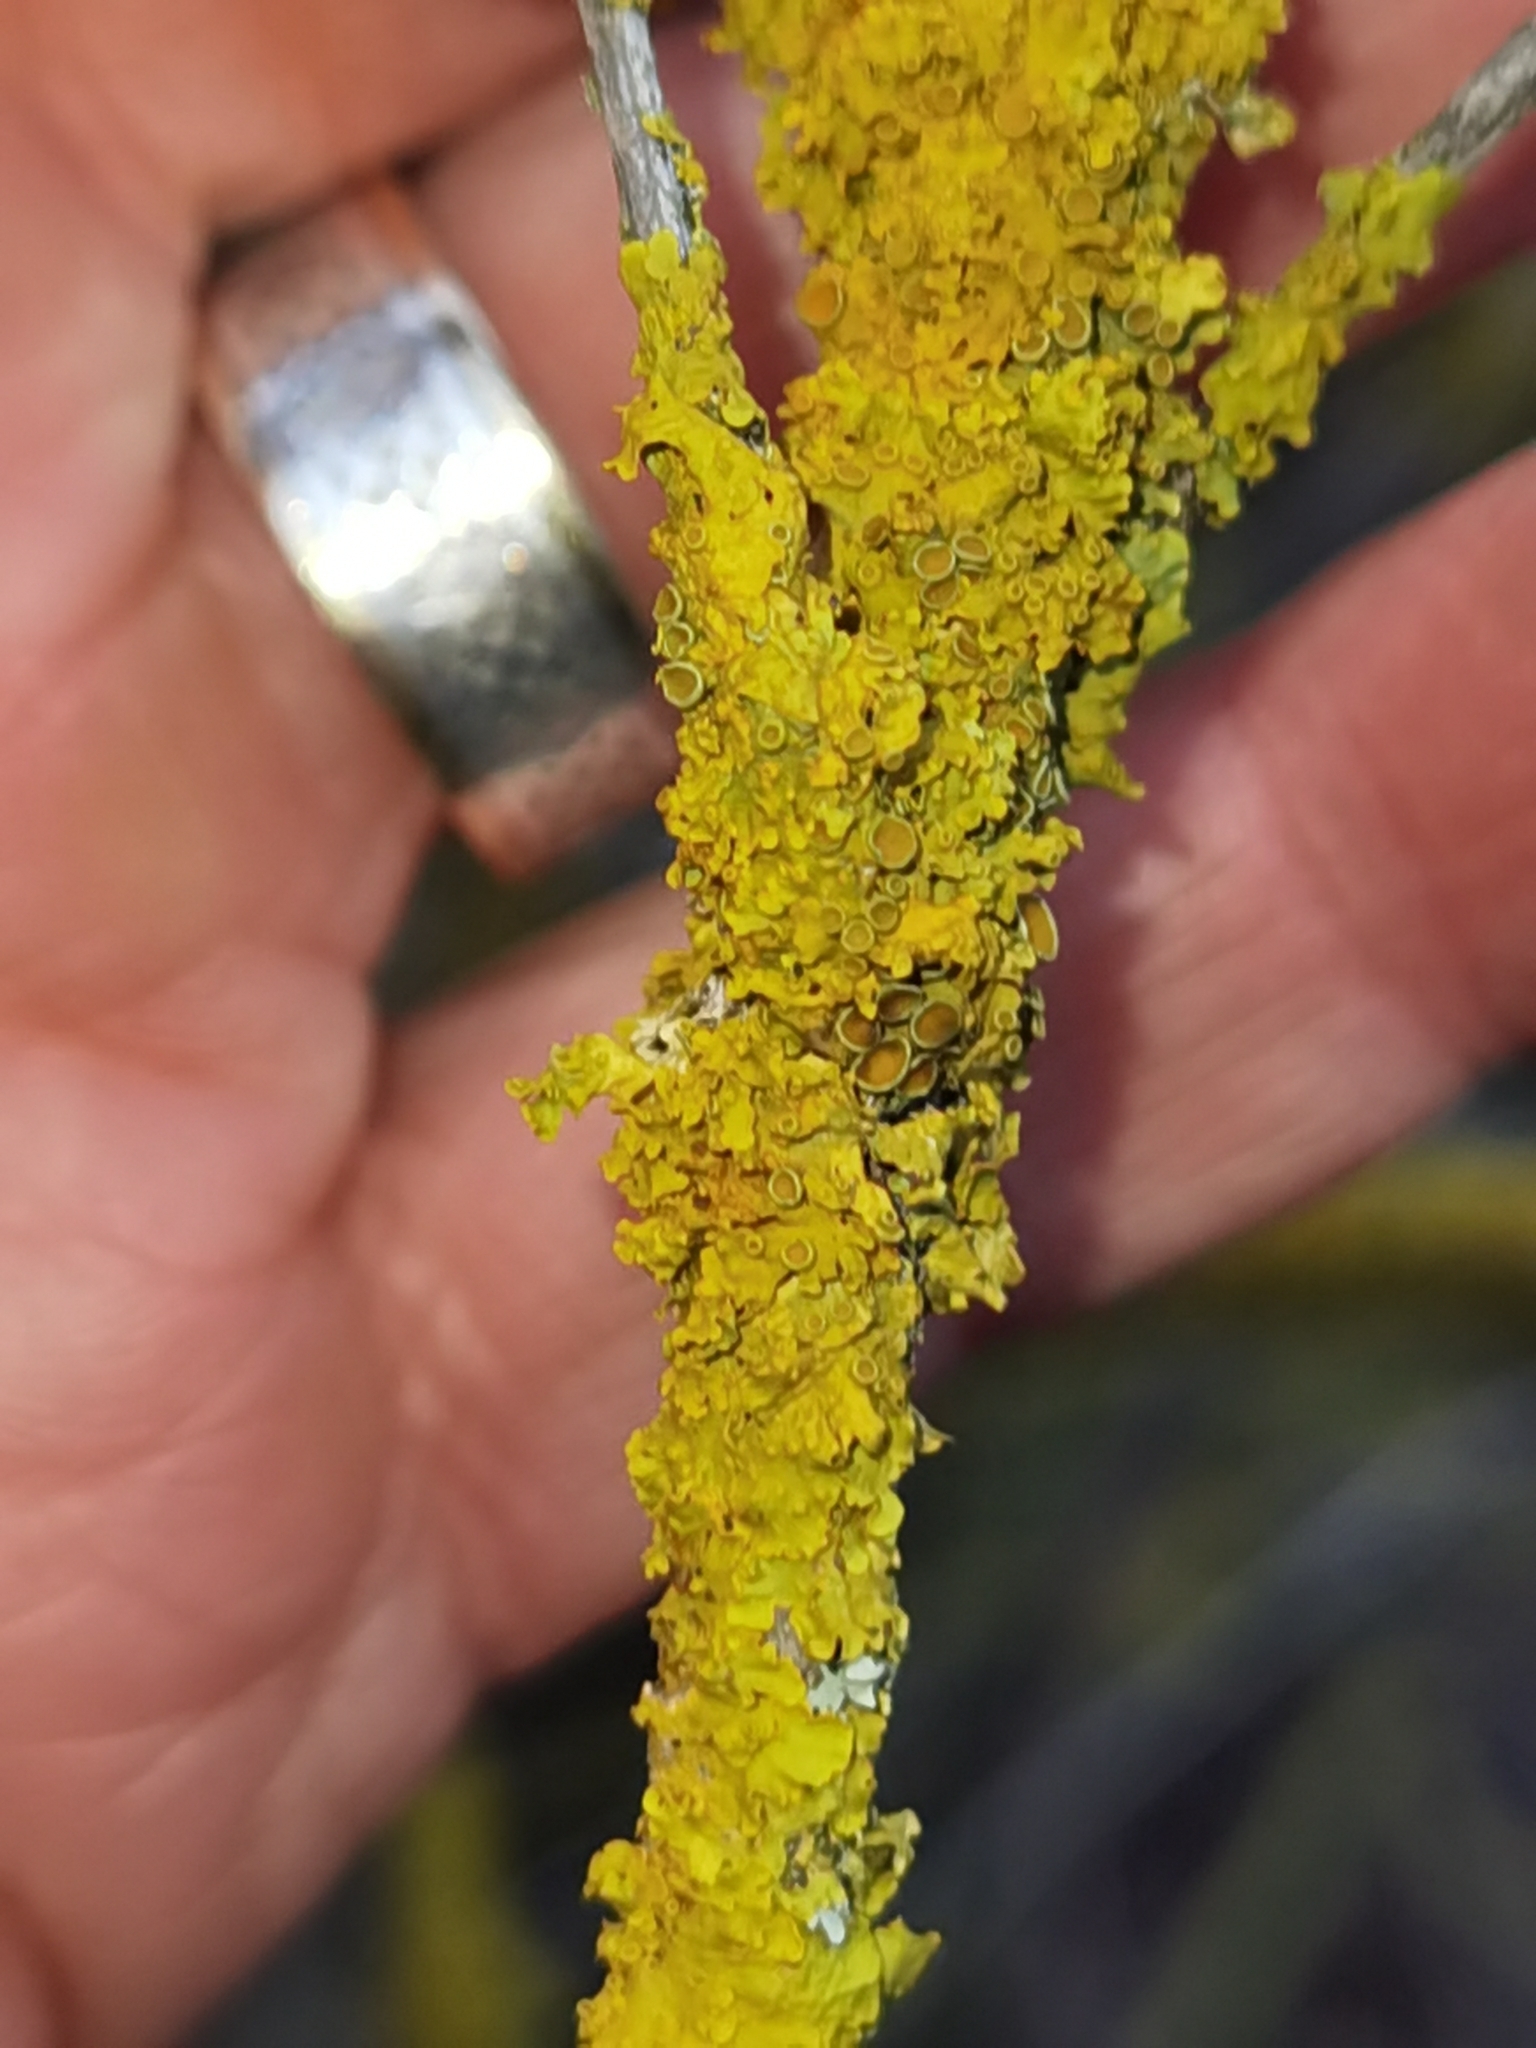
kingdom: Fungi
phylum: Ascomycota
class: Lecanoromycetes
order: Teloschistales
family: Teloschistaceae
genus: Xanthoria
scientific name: Xanthoria parietina
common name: Common orange lichen
